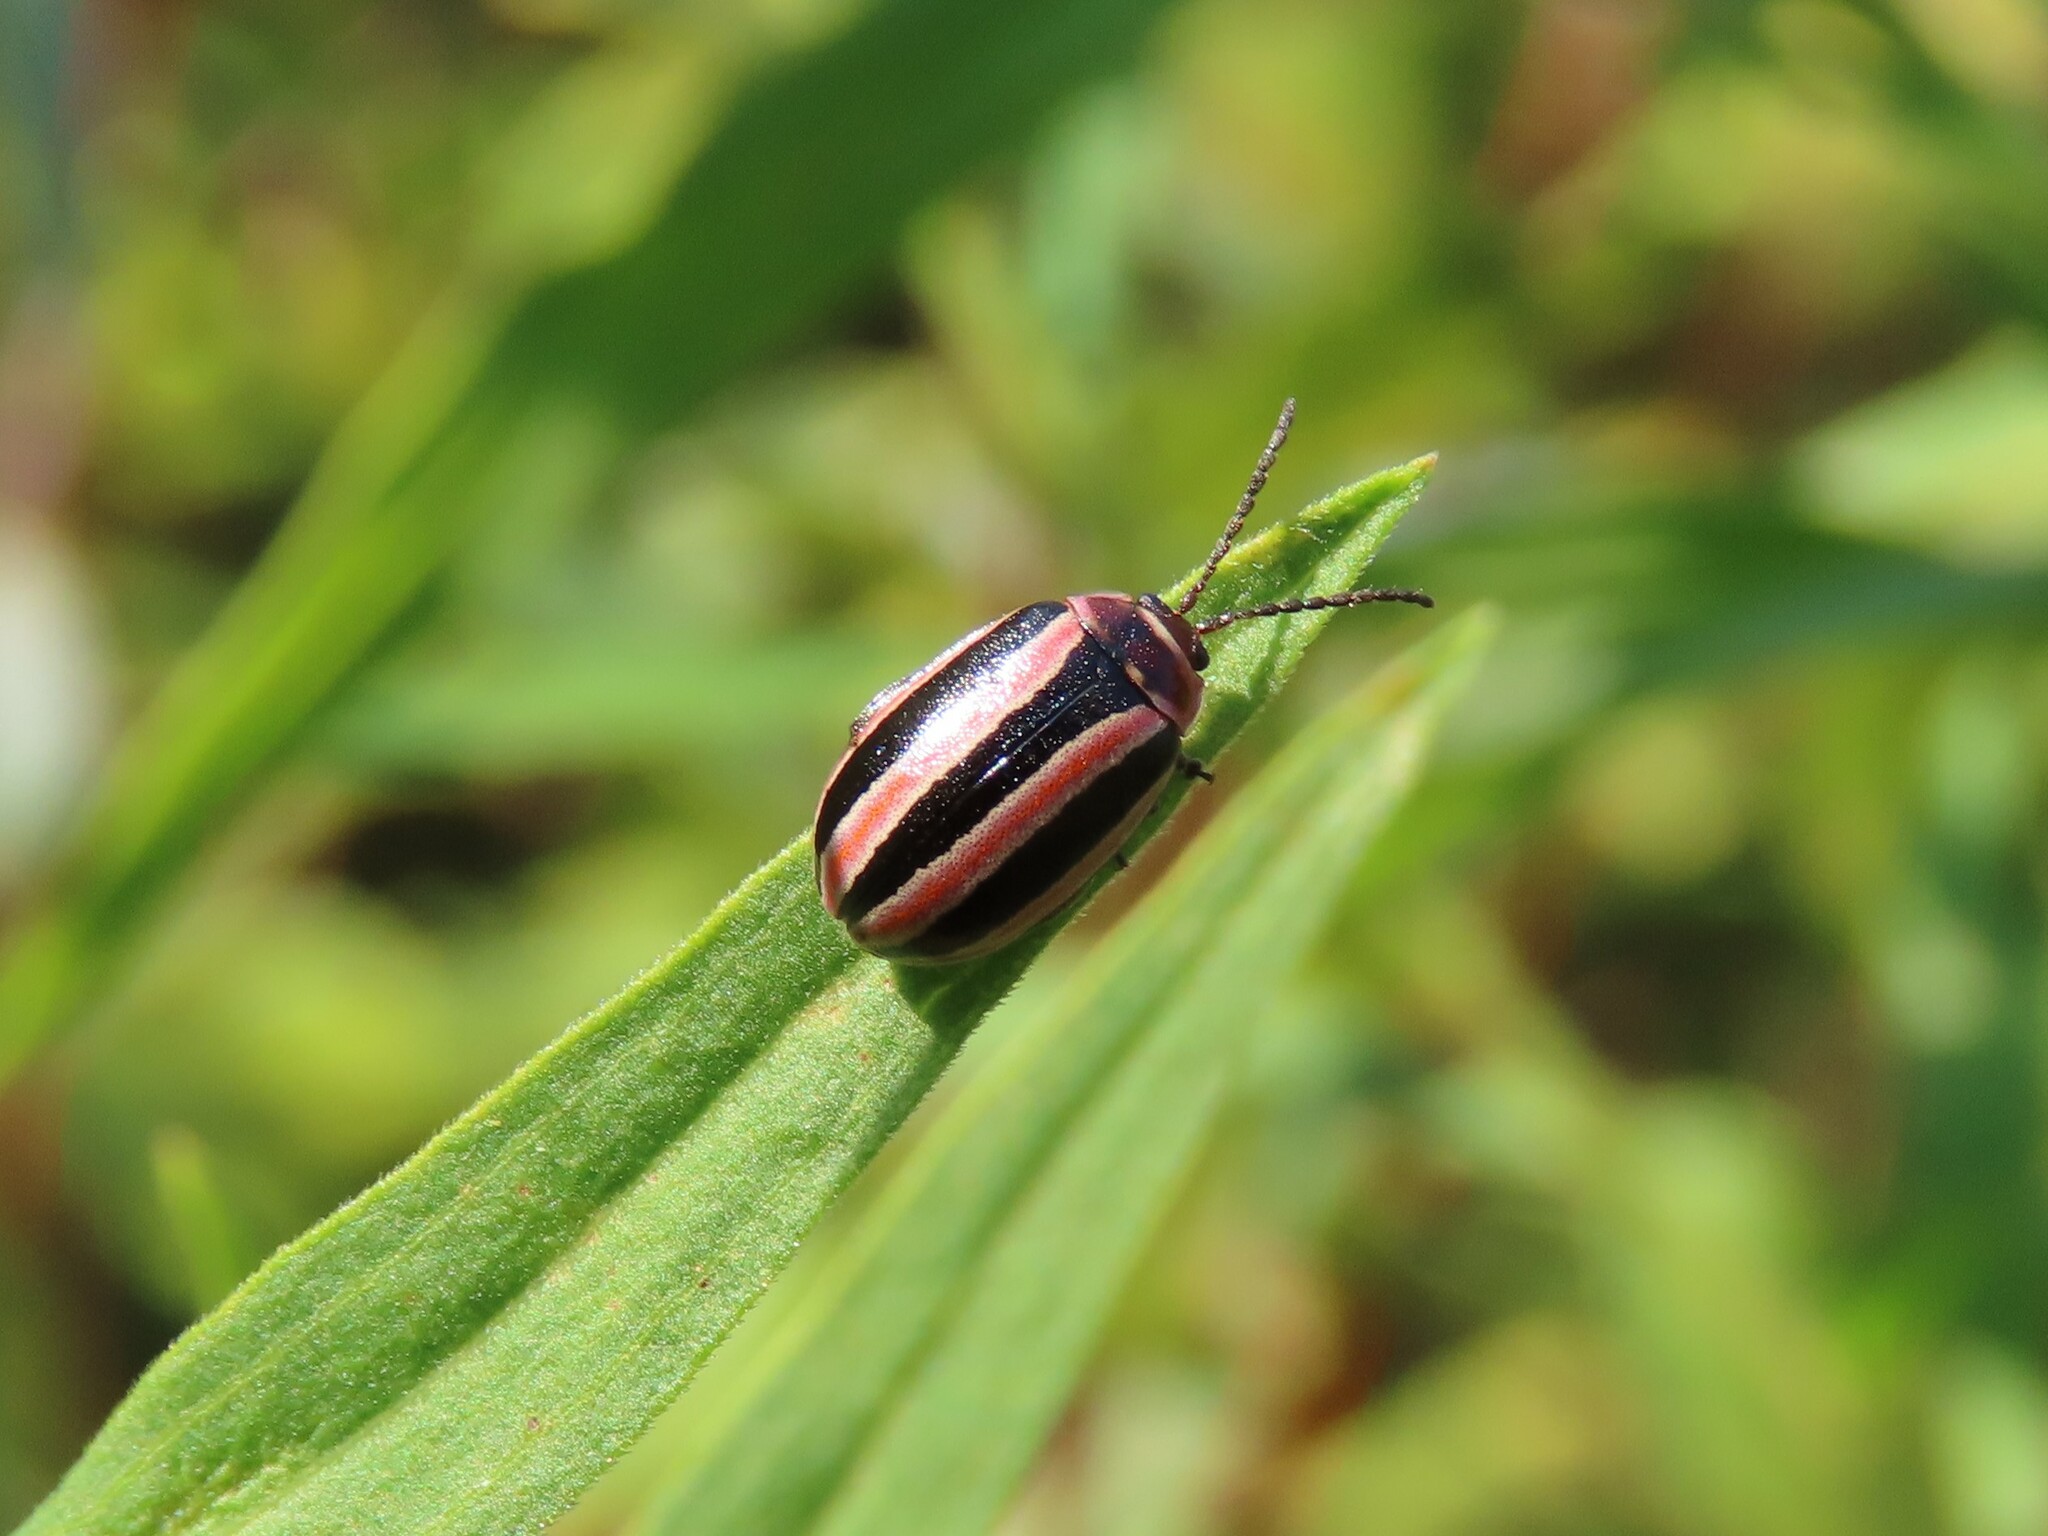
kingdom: Animalia
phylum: Arthropoda
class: Insecta
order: Coleoptera
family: Chrysomelidae
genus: Kuschelina
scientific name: Kuschelina miniata
